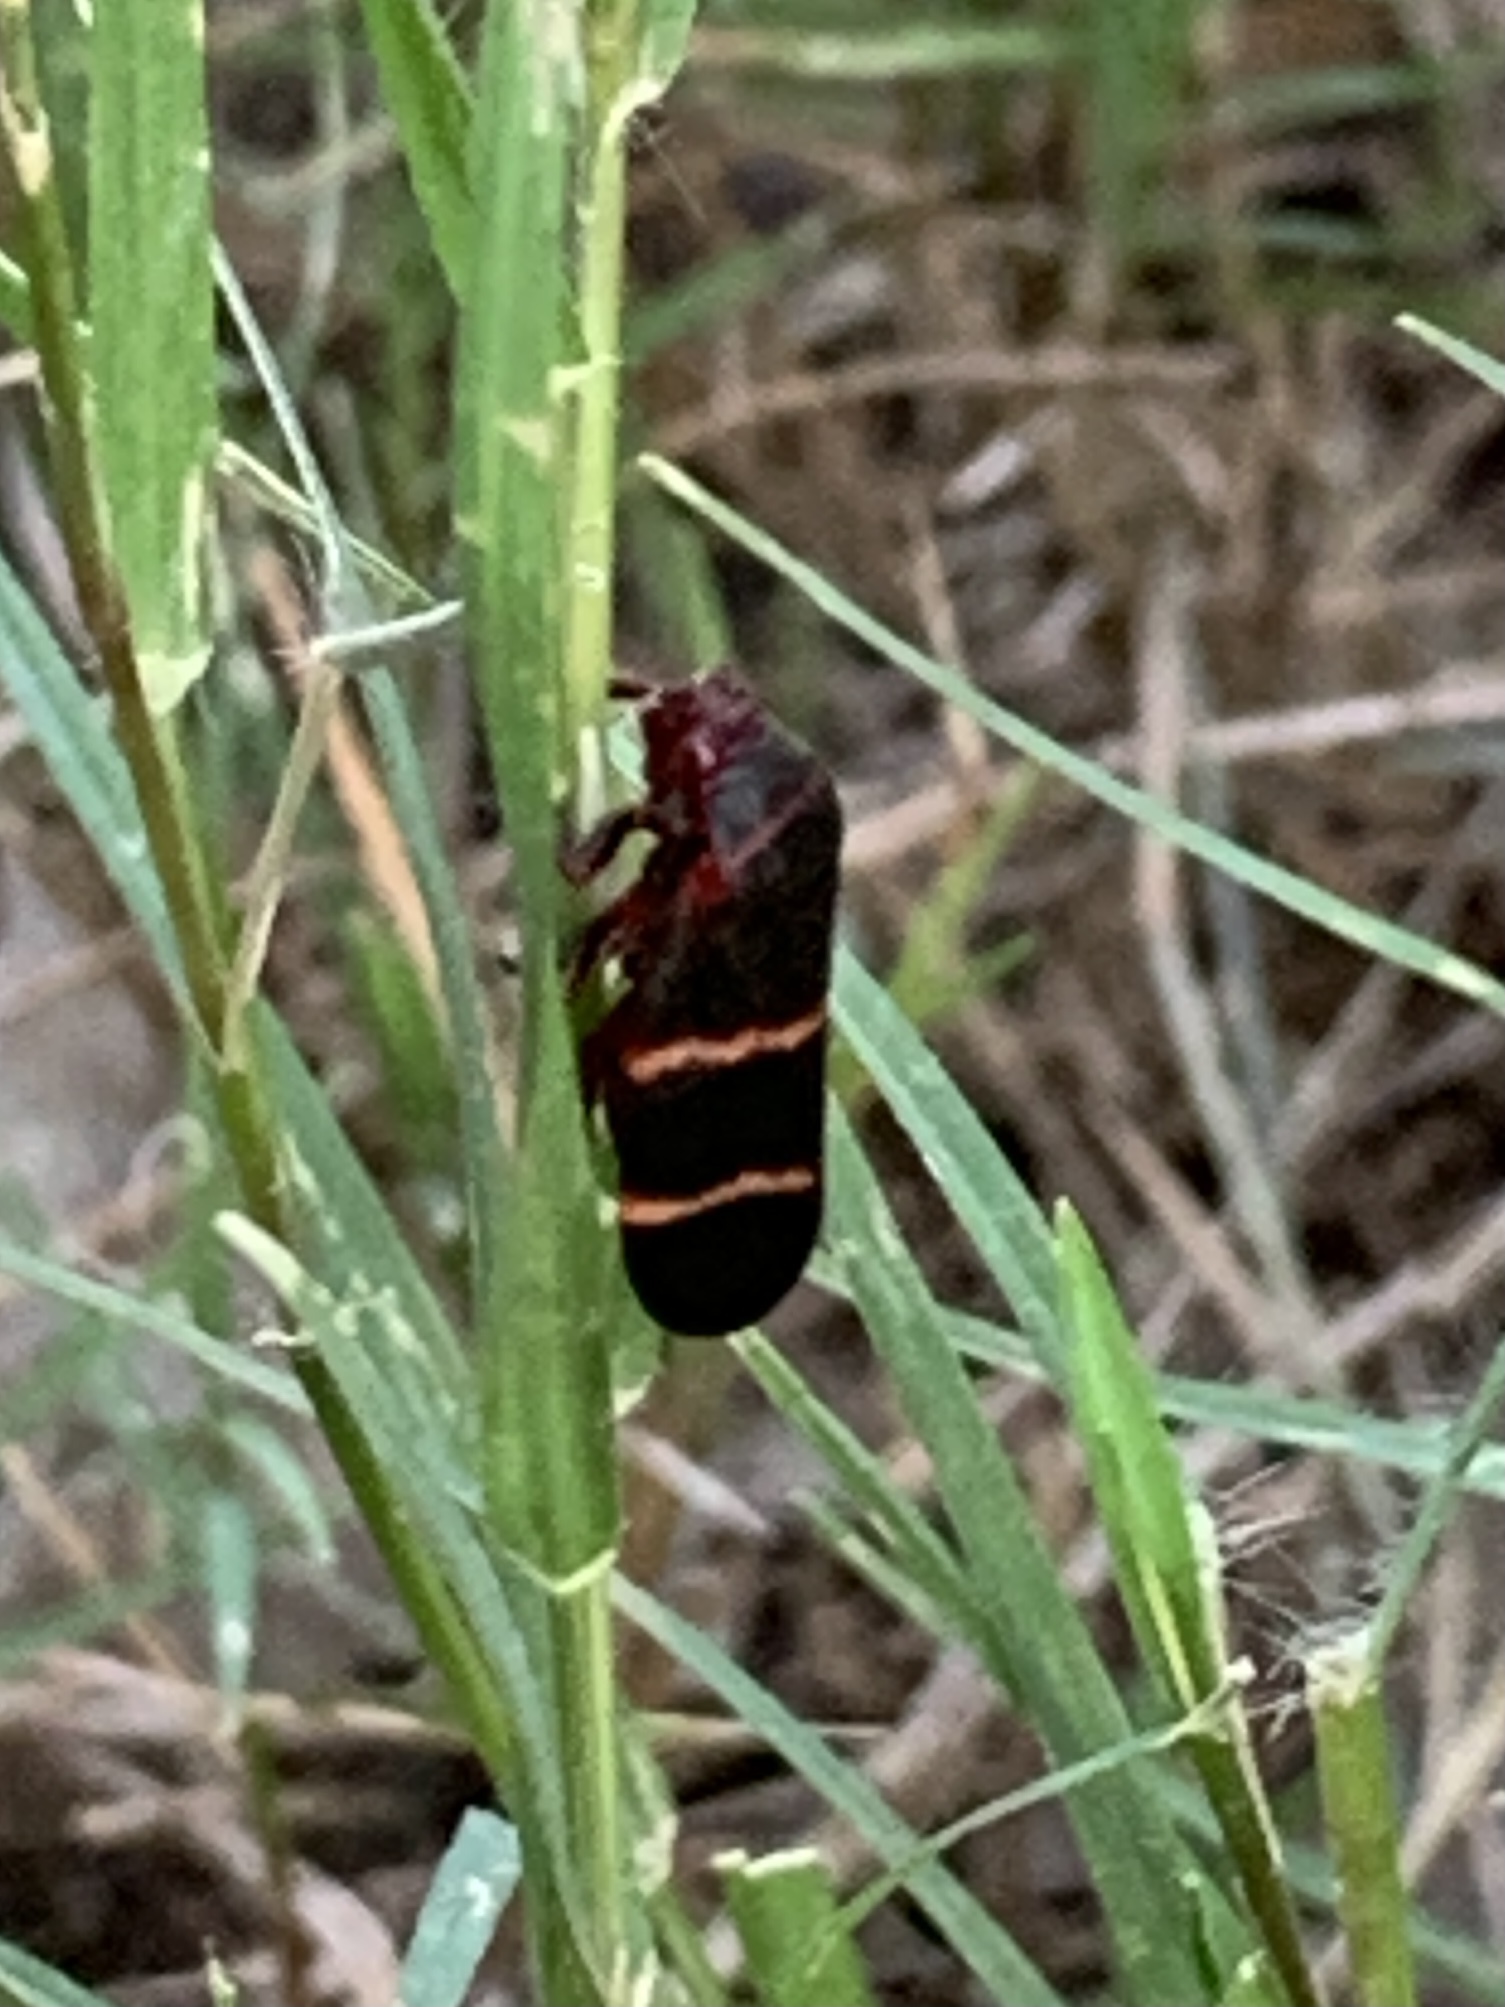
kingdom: Animalia
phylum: Arthropoda
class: Insecta
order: Hemiptera
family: Cercopidae
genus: Prosapia
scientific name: Prosapia bicincta
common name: Twolined spittlebug
